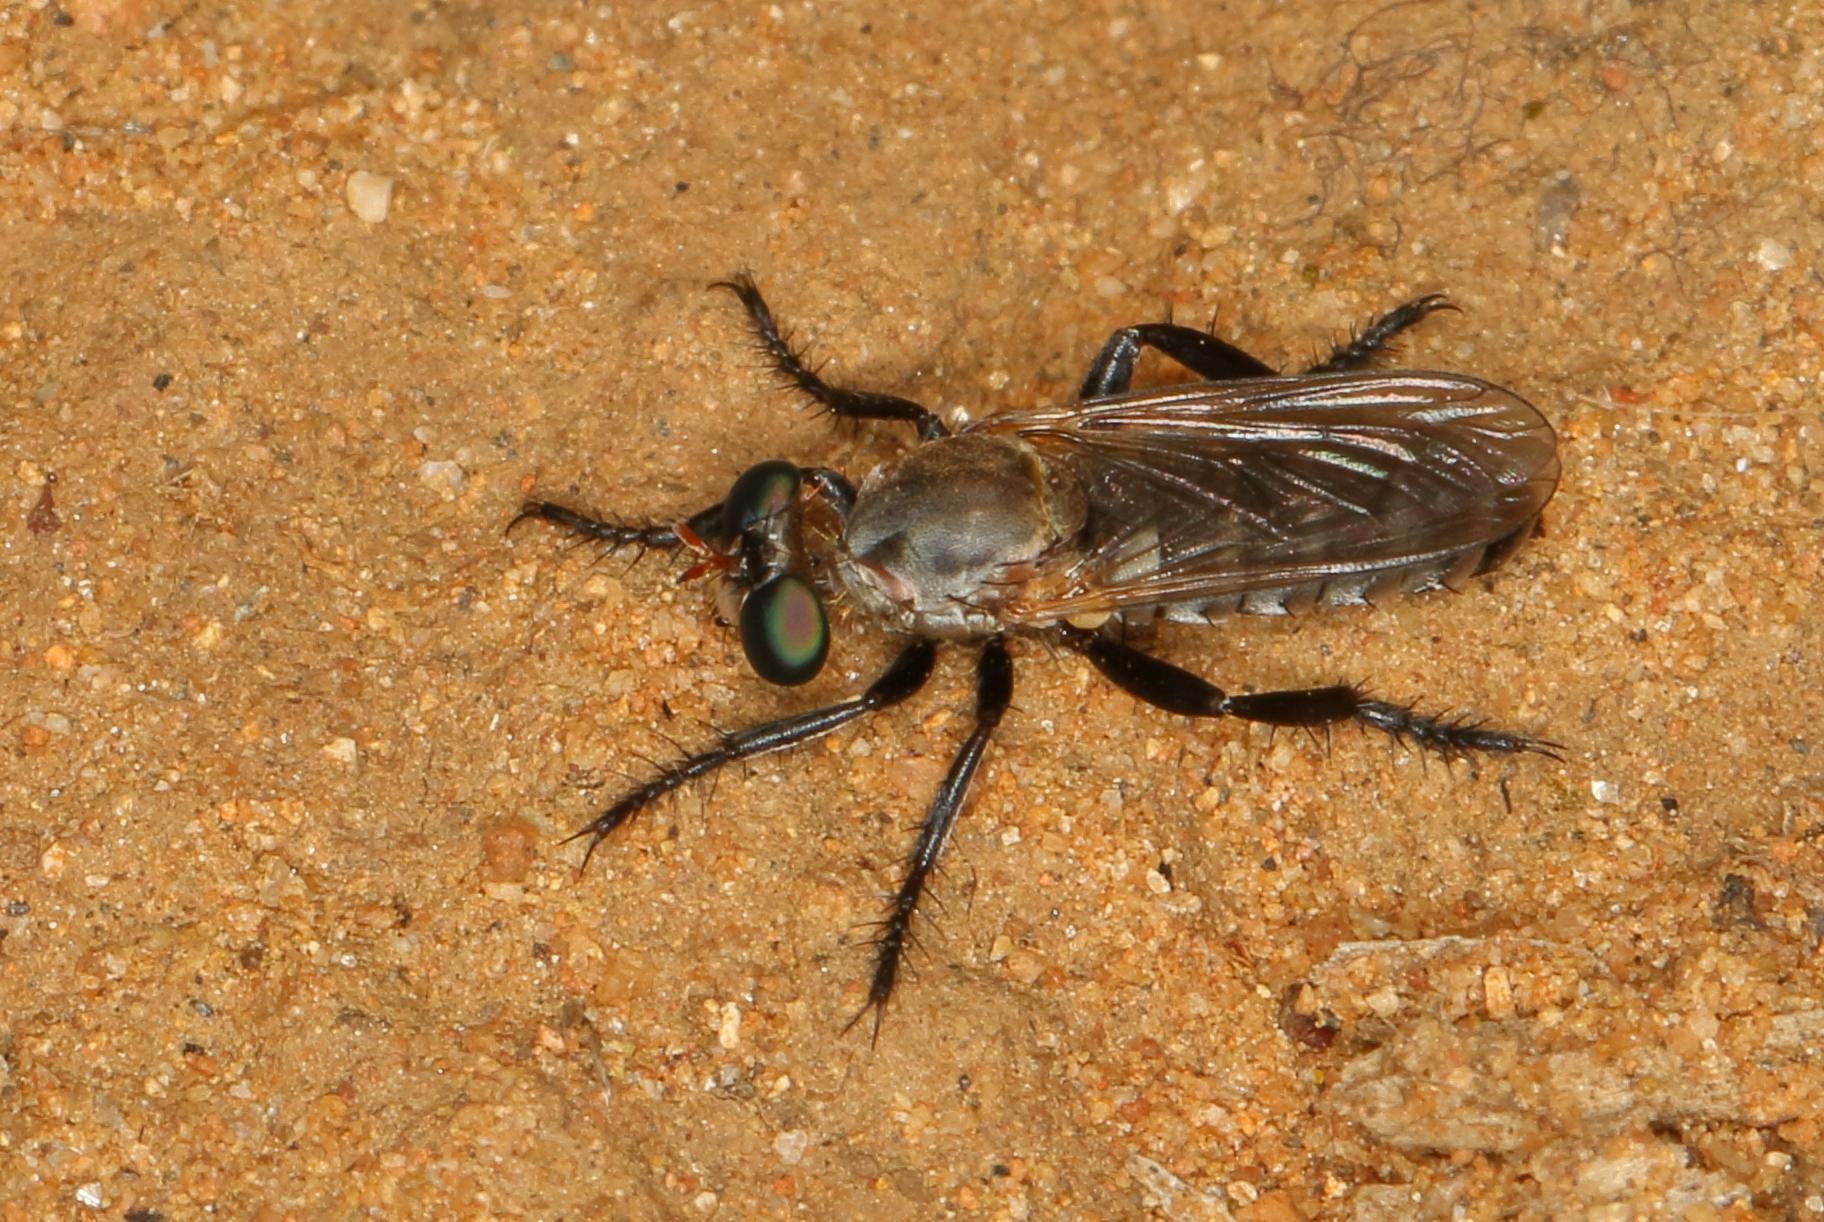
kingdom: Animalia
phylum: Arthropoda
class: Insecta
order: Diptera
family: Asilidae
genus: Anypodetus
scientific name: Anypodetus arachnoides
